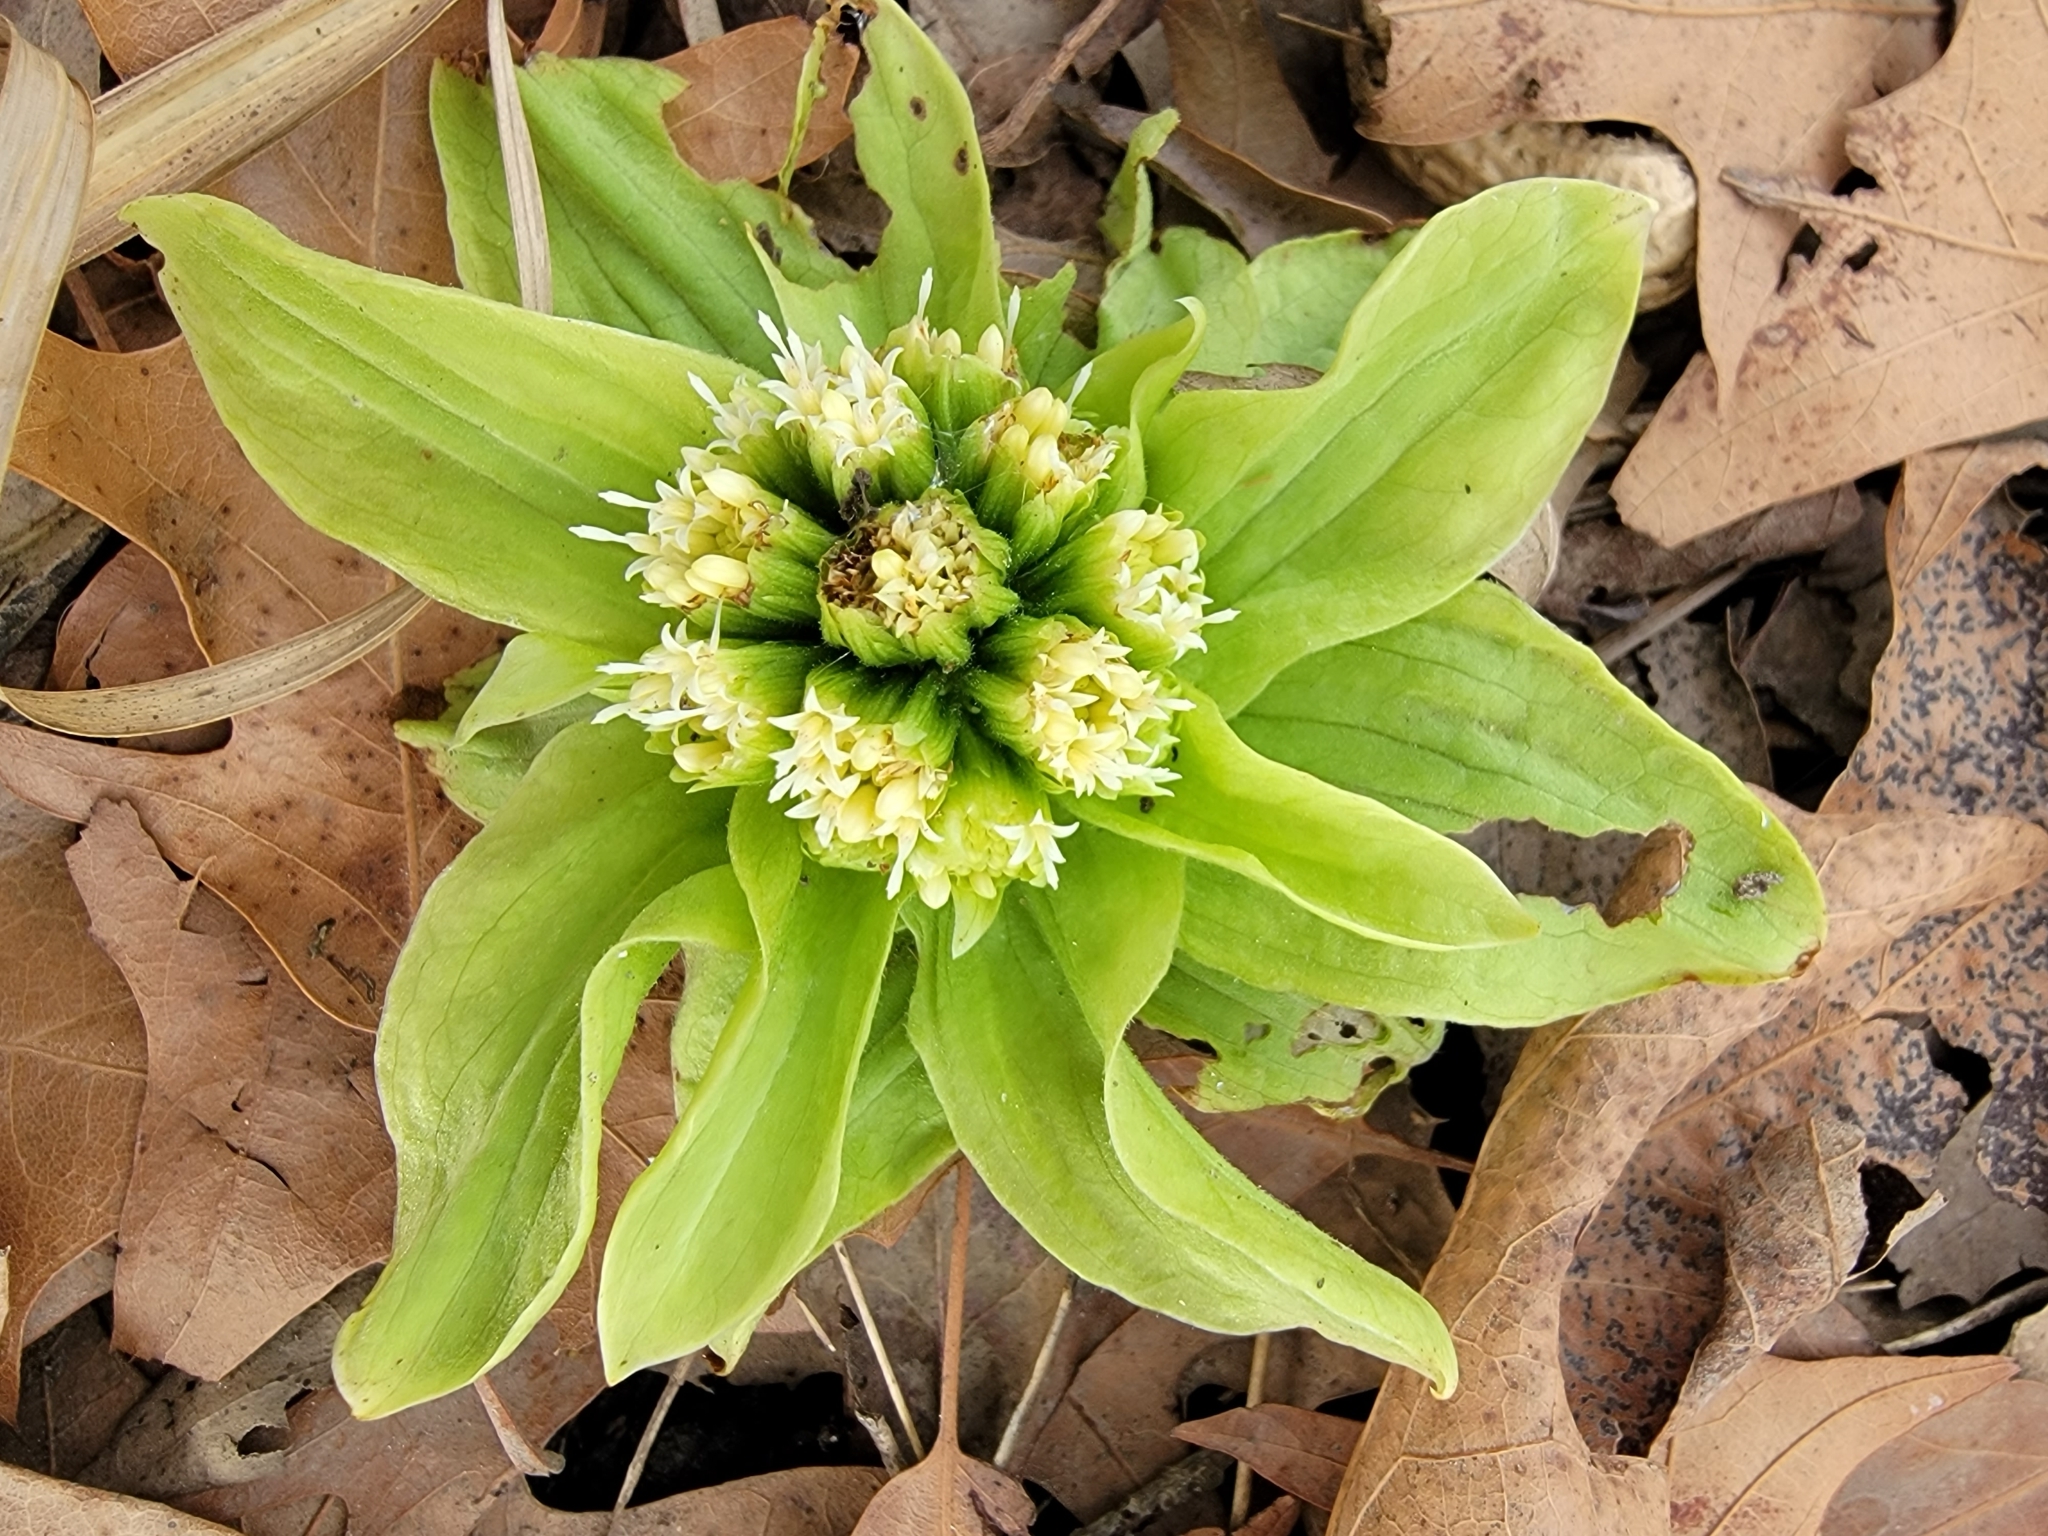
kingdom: Plantae
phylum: Tracheophyta
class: Magnoliopsida
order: Asterales
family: Asteraceae
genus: Petasites
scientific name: Petasites japonicus
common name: Giant butterbur
